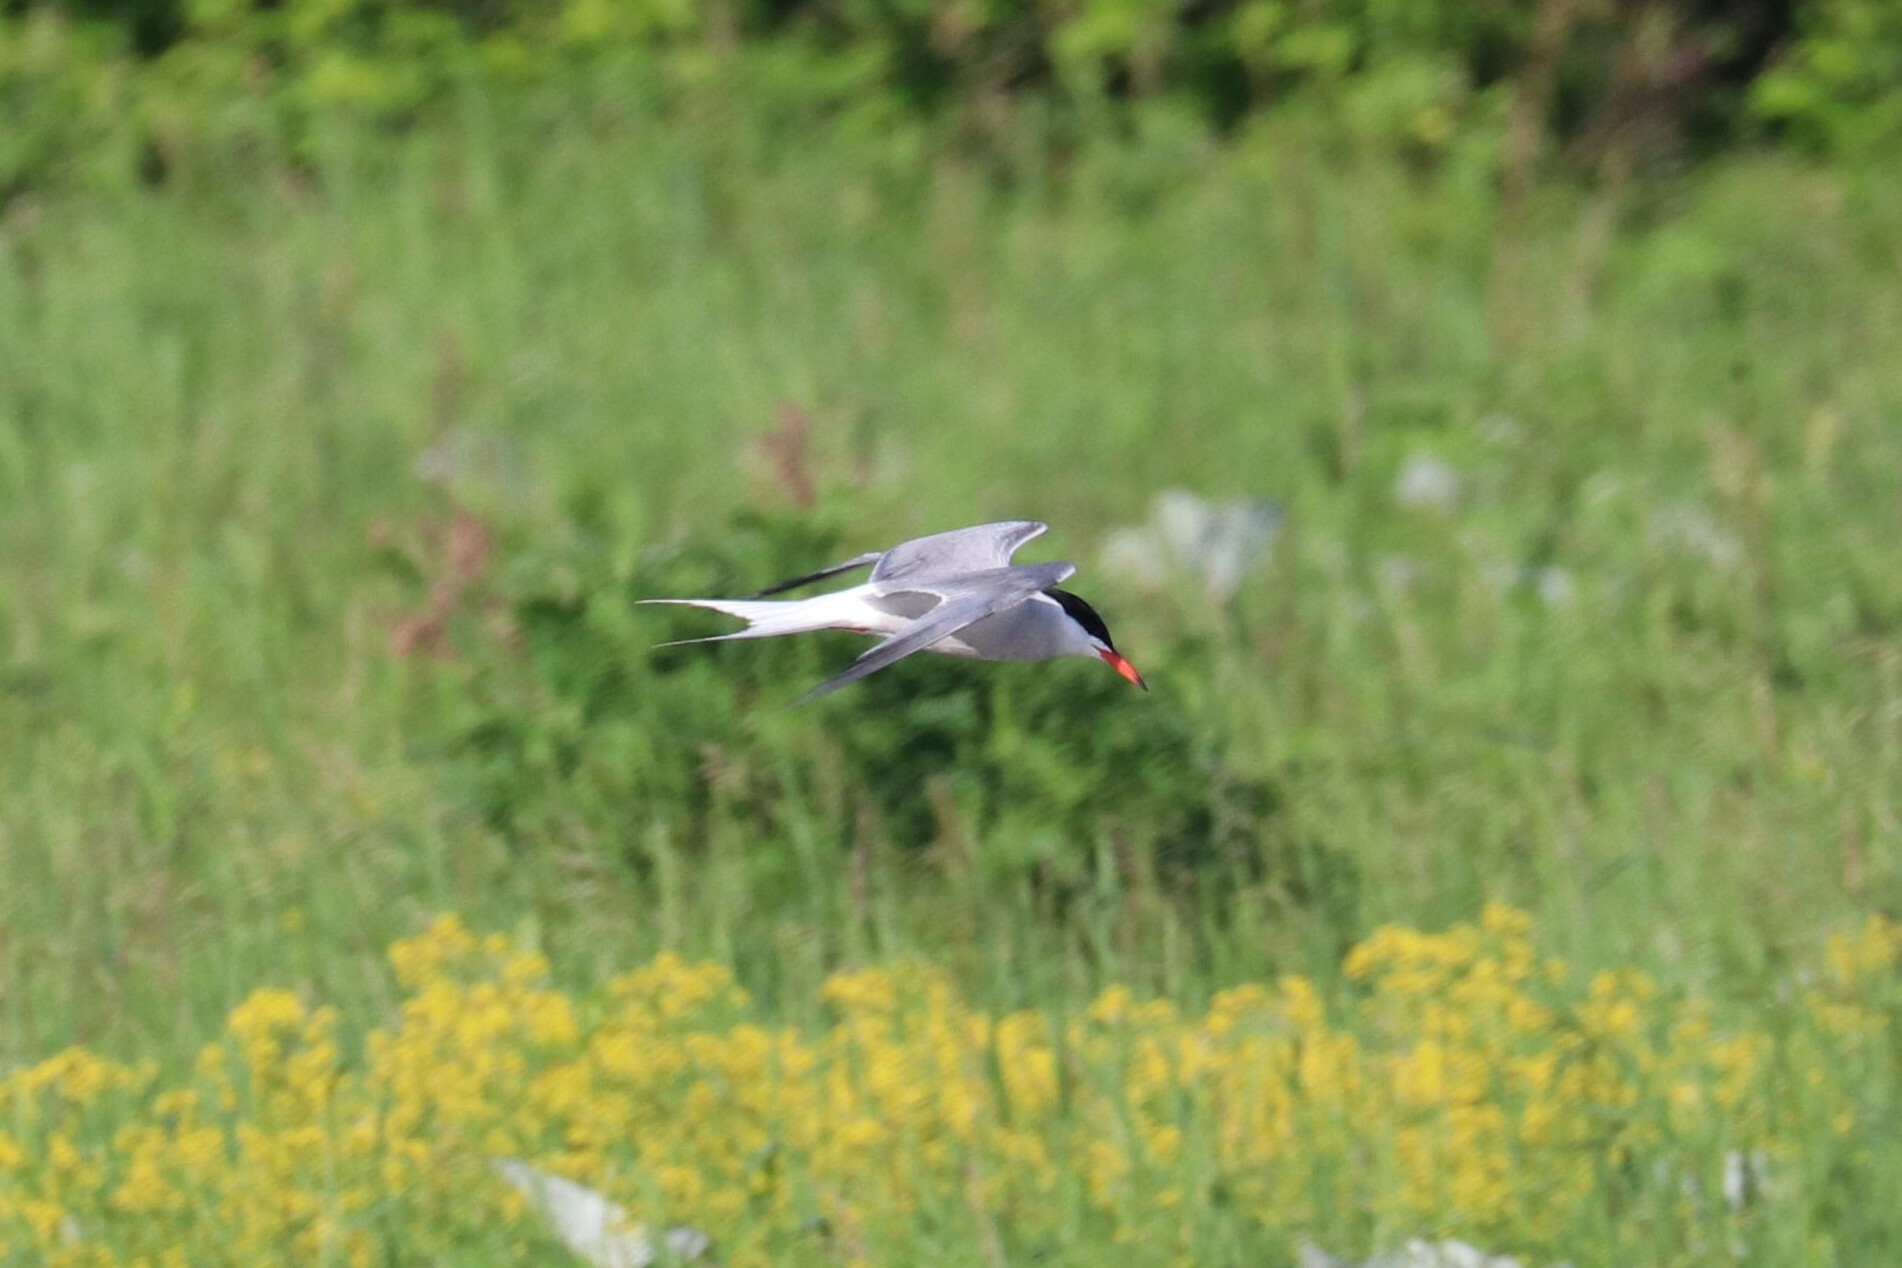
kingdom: Animalia
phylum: Chordata
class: Aves
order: Charadriiformes
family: Laridae
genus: Sterna
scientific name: Sterna hirundo
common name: Common tern
